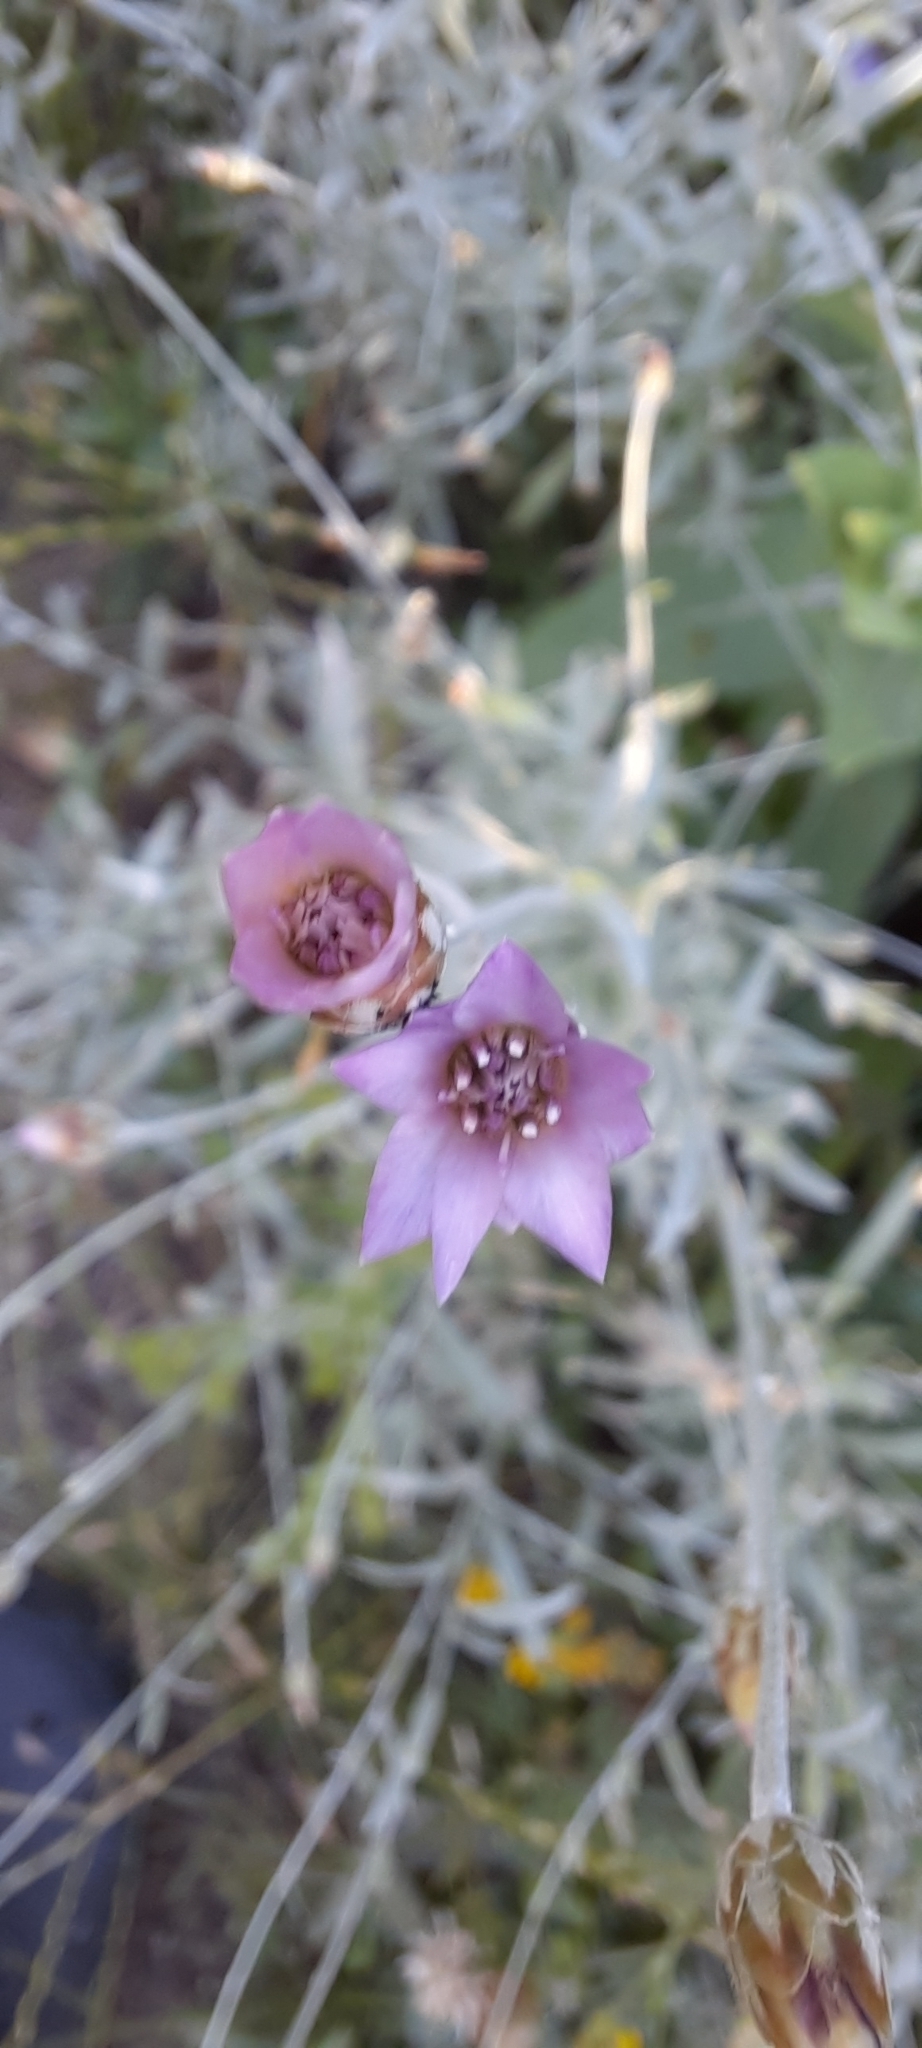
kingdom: Plantae
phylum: Tracheophyta
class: Magnoliopsida
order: Asterales
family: Asteraceae
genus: Xeranthemum
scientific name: Xeranthemum cylindraceum
